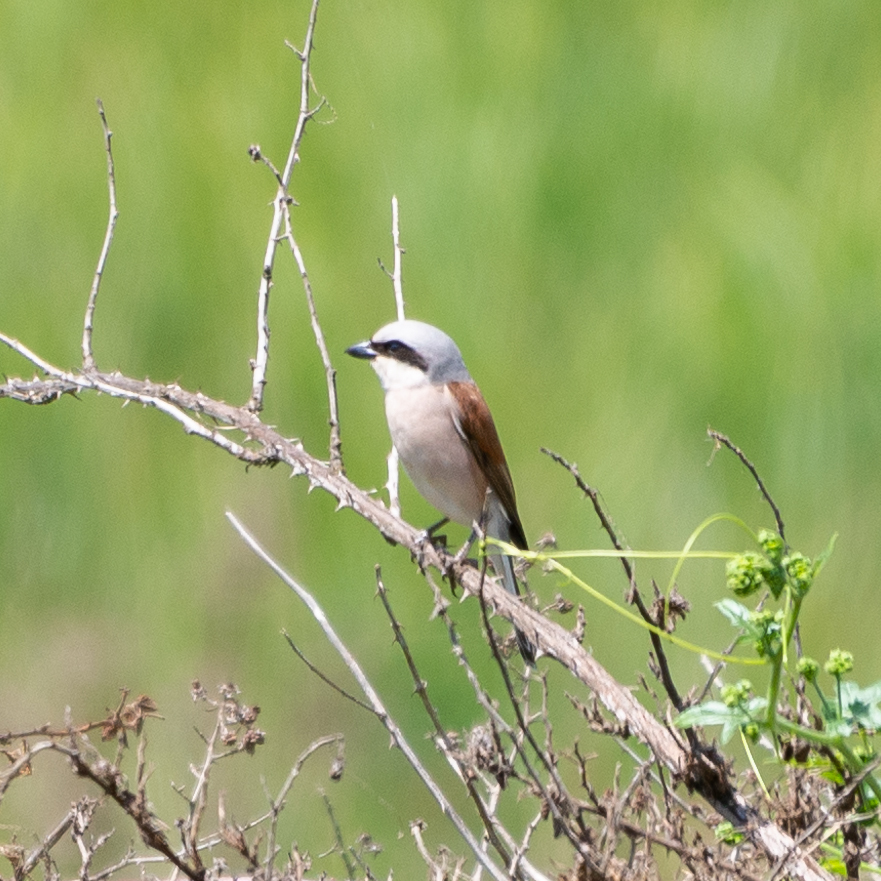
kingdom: Animalia
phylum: Chordata
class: Aves
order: Passeriformes
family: Laniidae
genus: Lanius
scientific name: Lanius collurio
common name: Red-backed shrike
